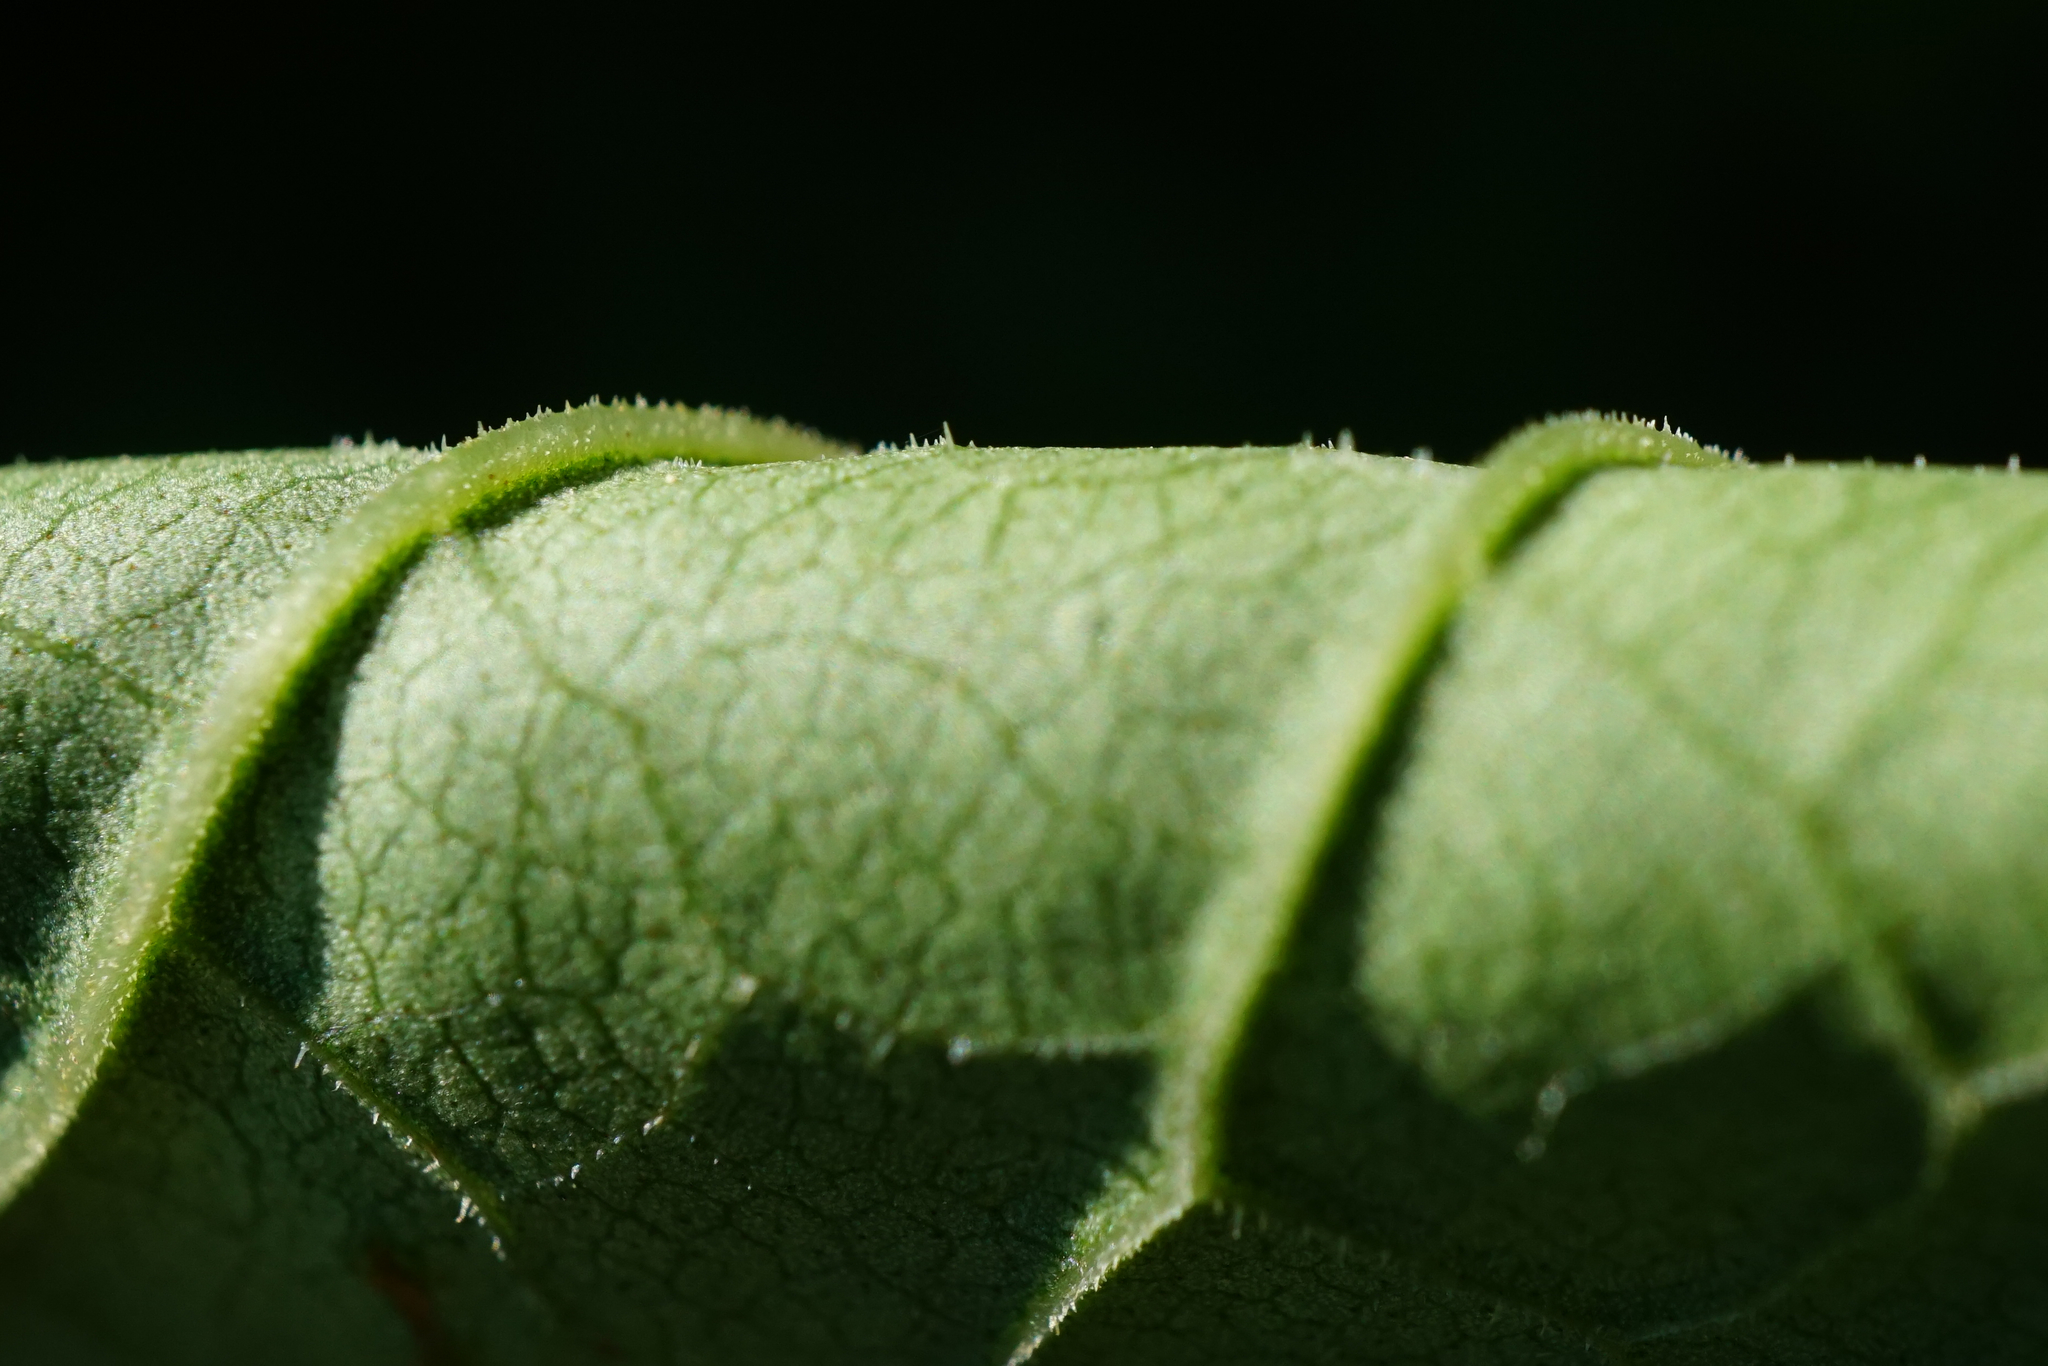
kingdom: Plantae
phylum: Tracheophyta
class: Magnoliopsida
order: Caryophyllales
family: Polygonaceae
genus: Reynoutria
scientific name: Reynoutria bohemica
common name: Bohemian knotweed
